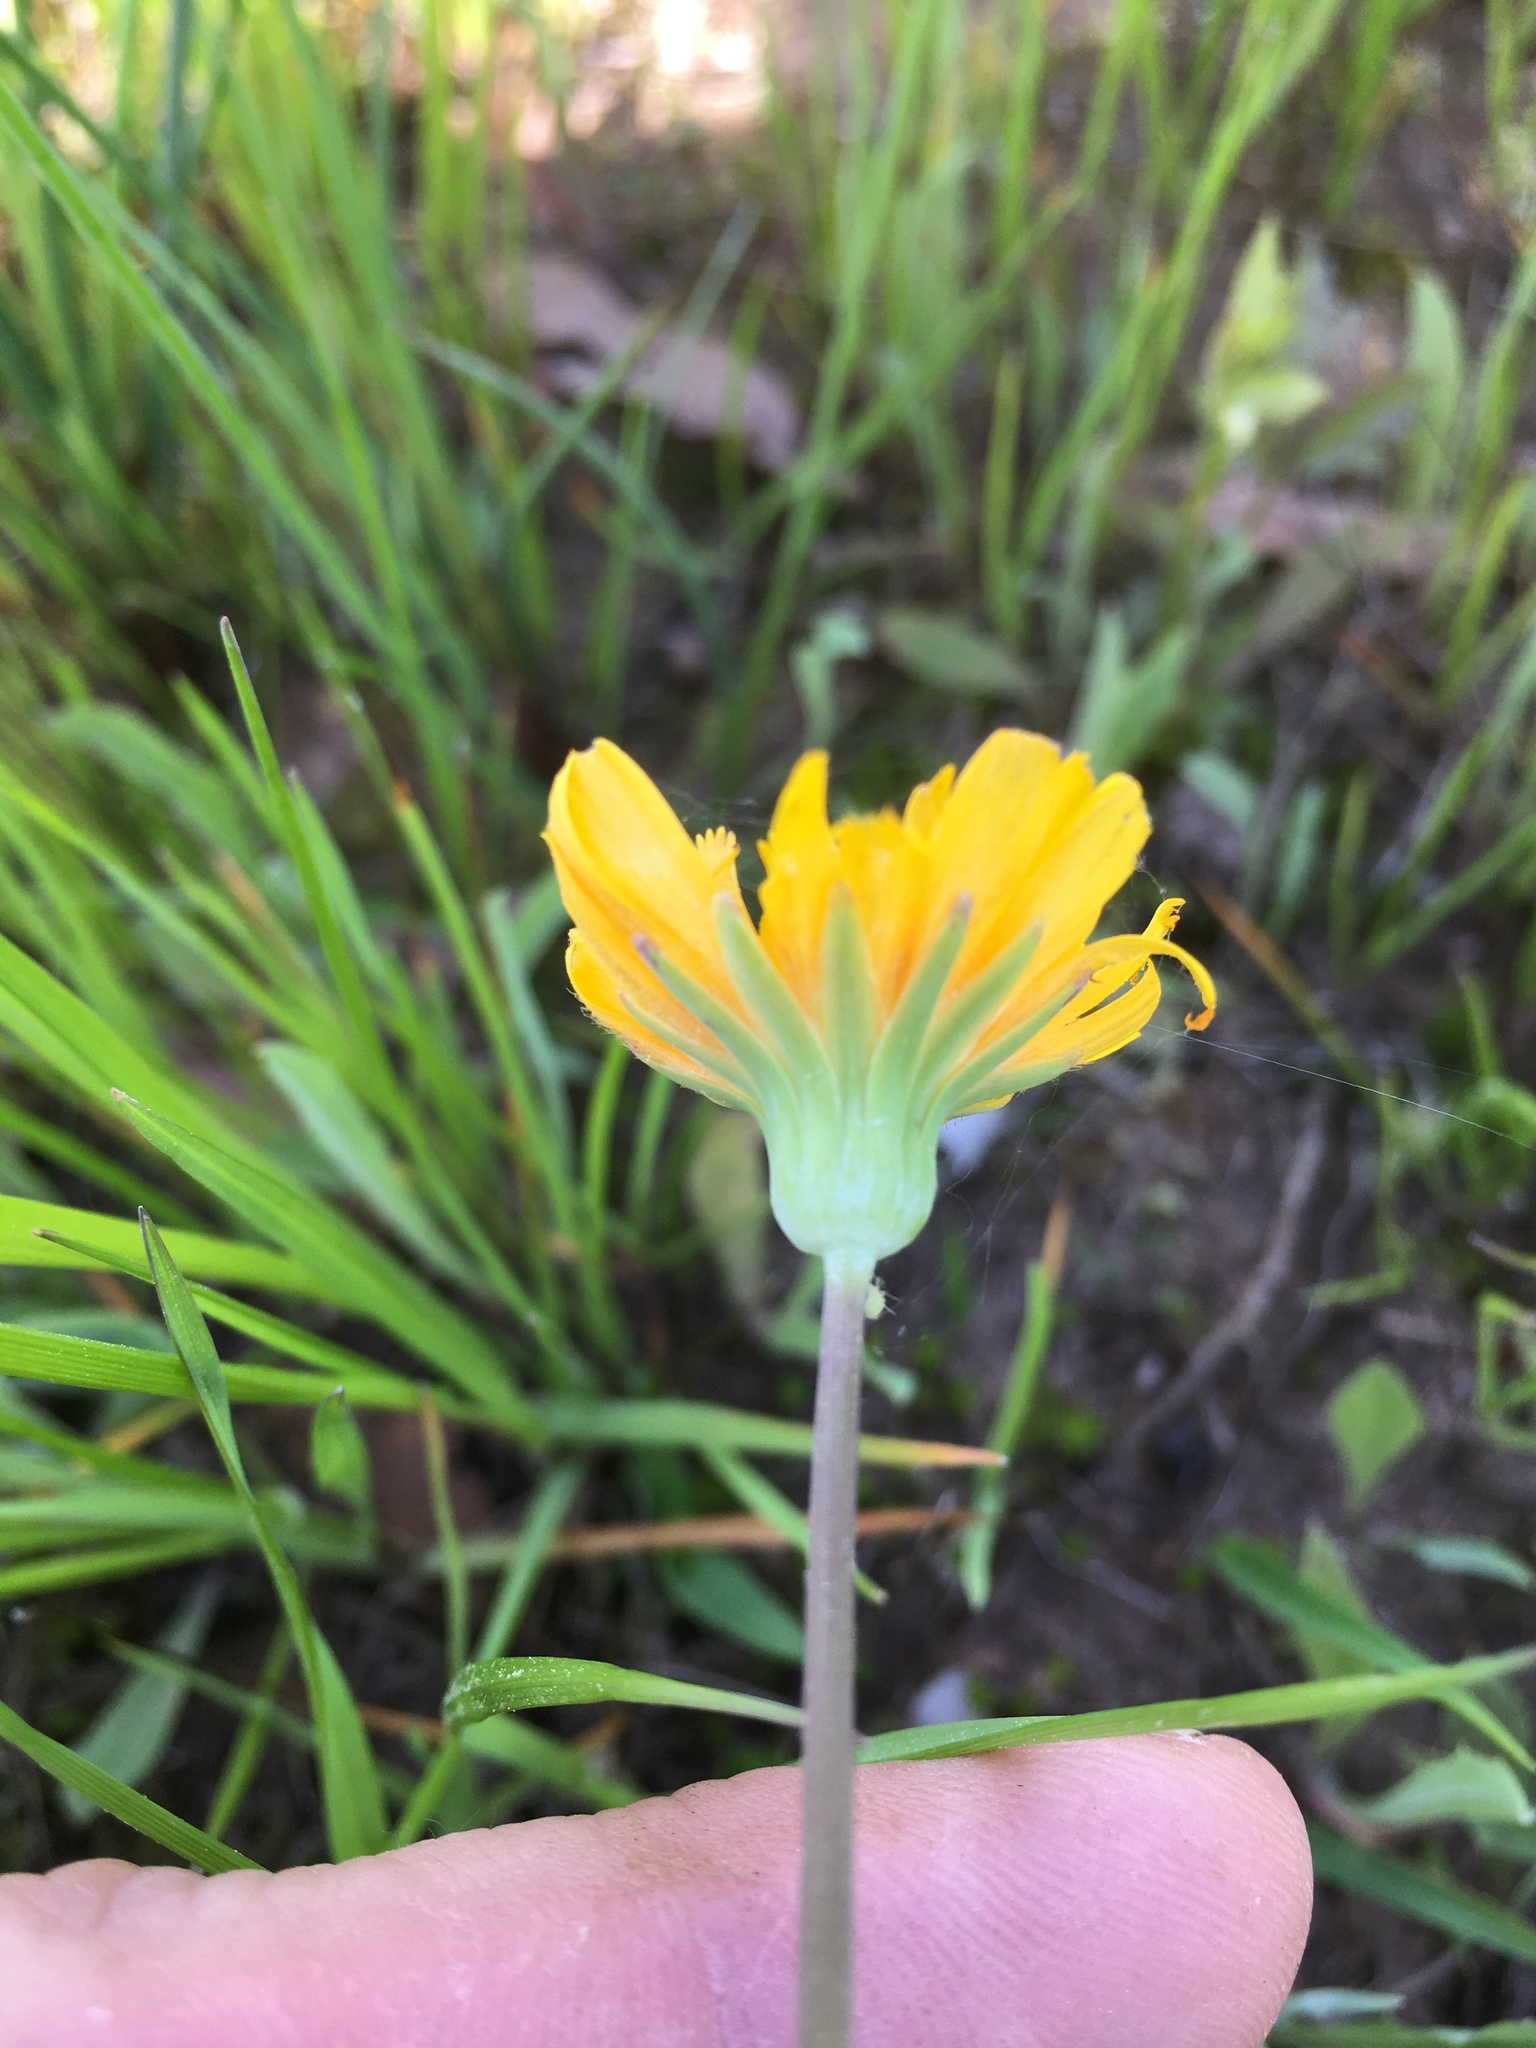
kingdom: Plantae
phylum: Tracheophyta
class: Magnoliopsida
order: Asterales
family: Asteraceae
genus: Krigia
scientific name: Krigia dandelion
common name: Colonial dwarf-dandelion
